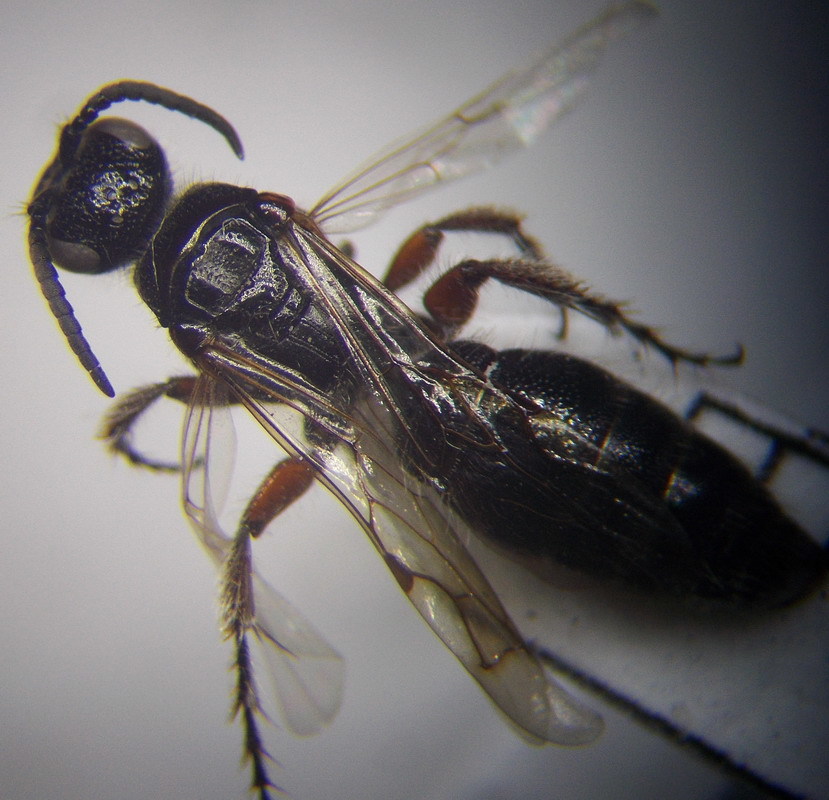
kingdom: Animalia
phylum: Arthropoda
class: Insecta
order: Hymenoptera
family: Tiphiidae
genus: Tiphia
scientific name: Tiphia femorata
